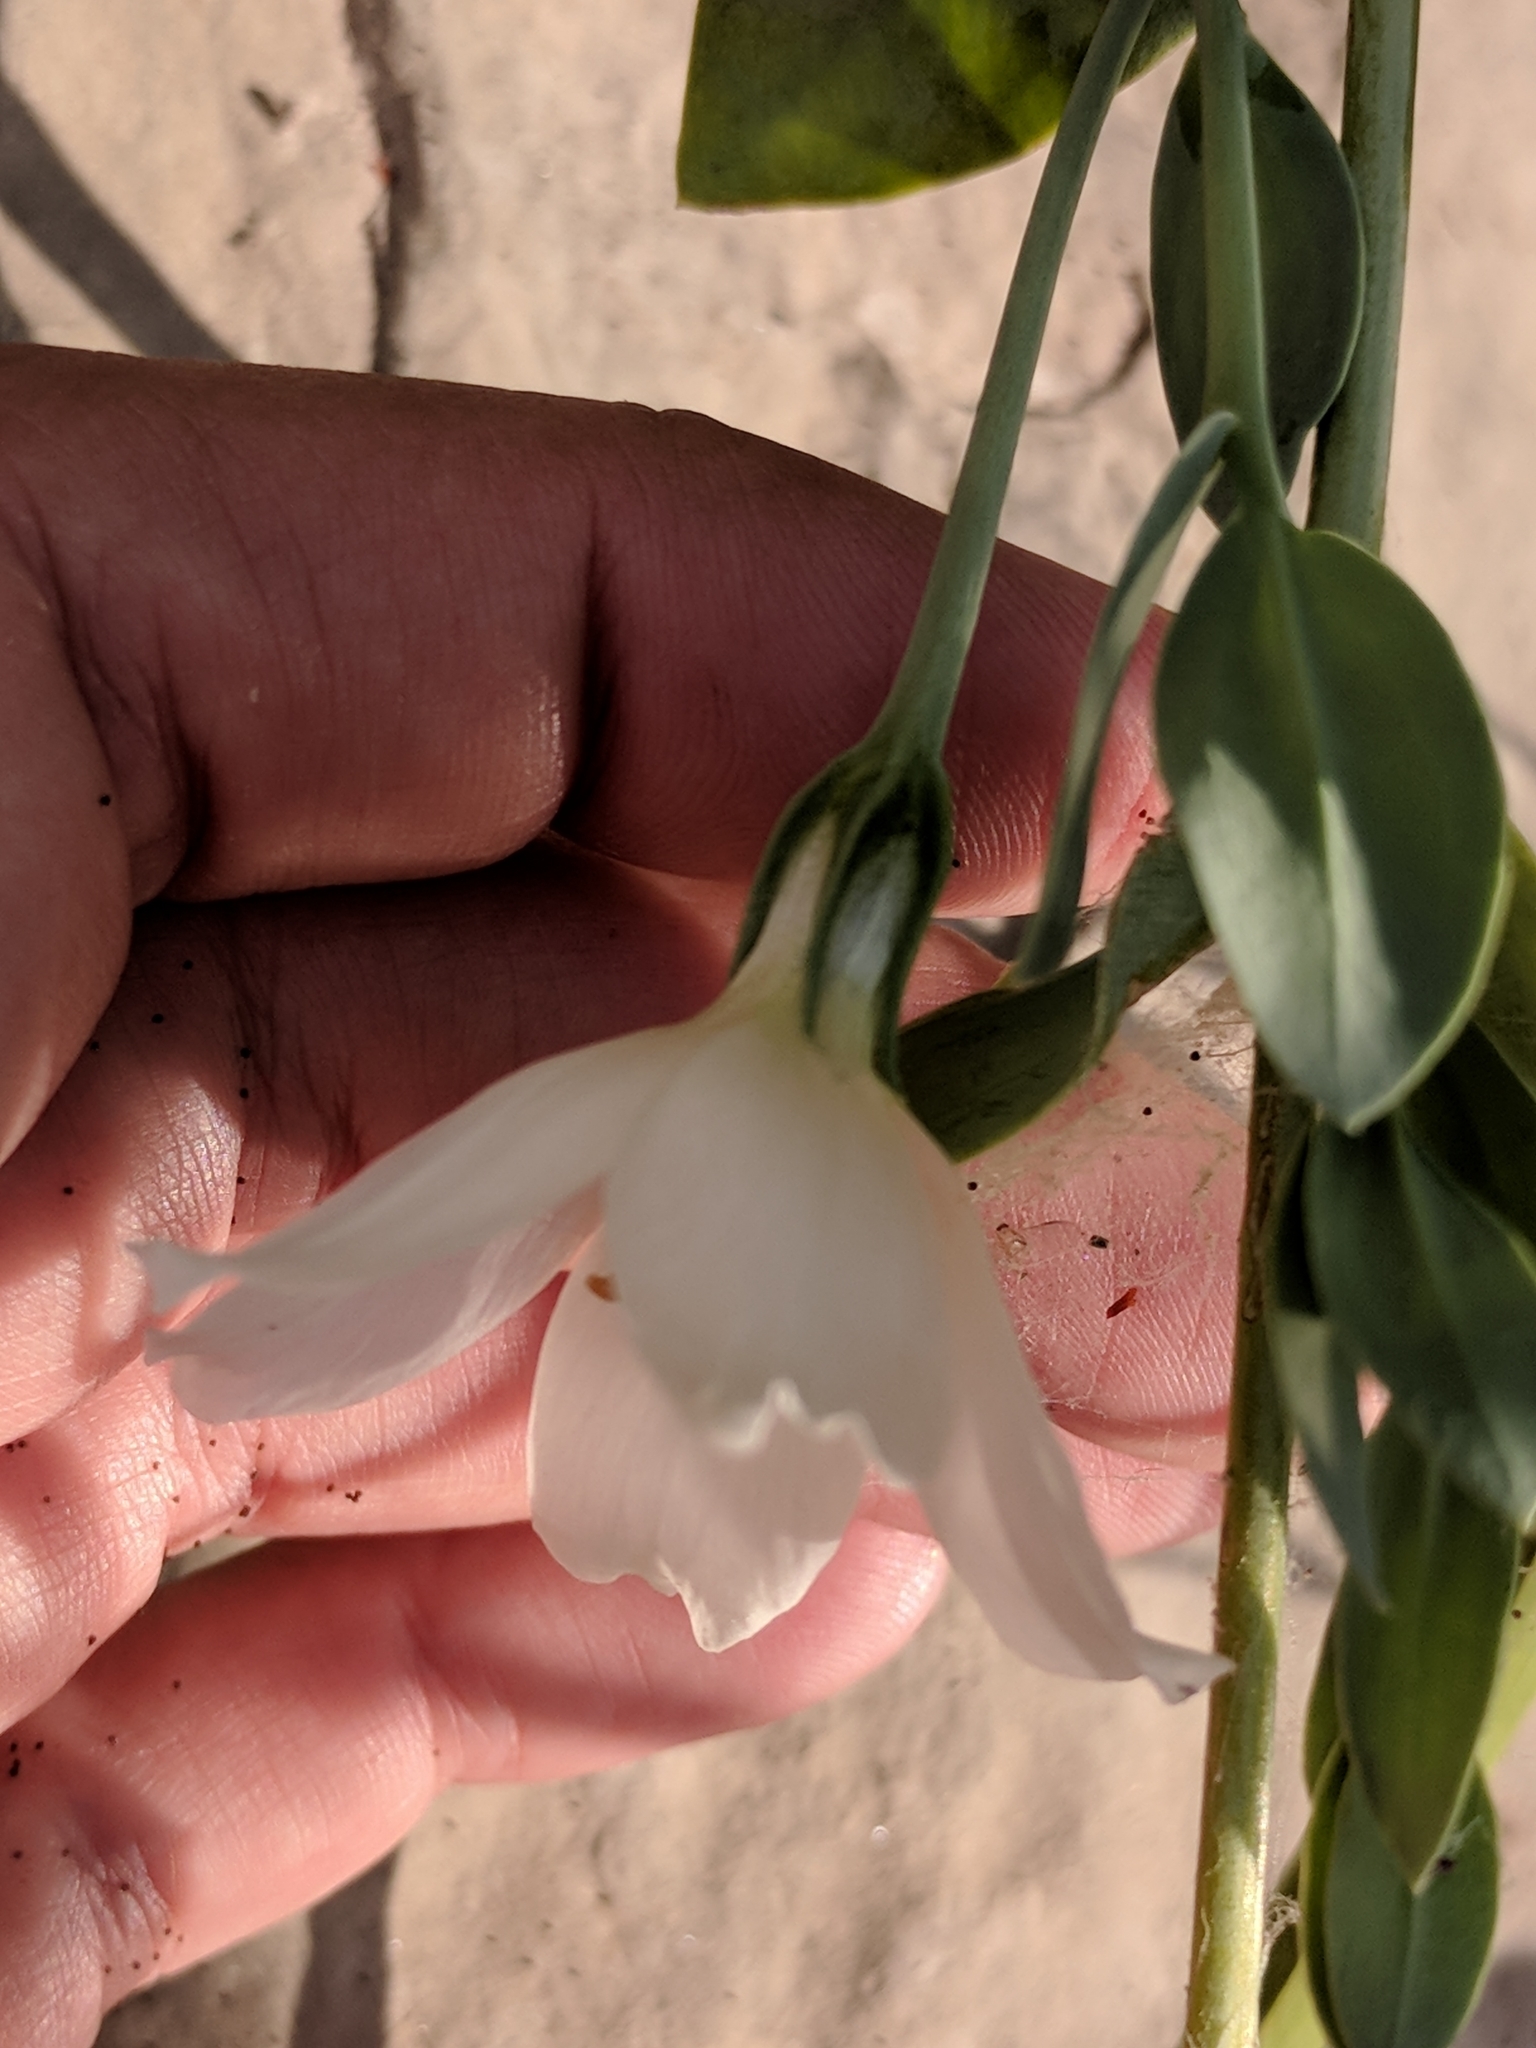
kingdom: Plantae
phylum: Tracheophyta
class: Magnoliopsida
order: Gentianales
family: Gentianaceae
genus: Eustoma
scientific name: Eustoma exaltatum
